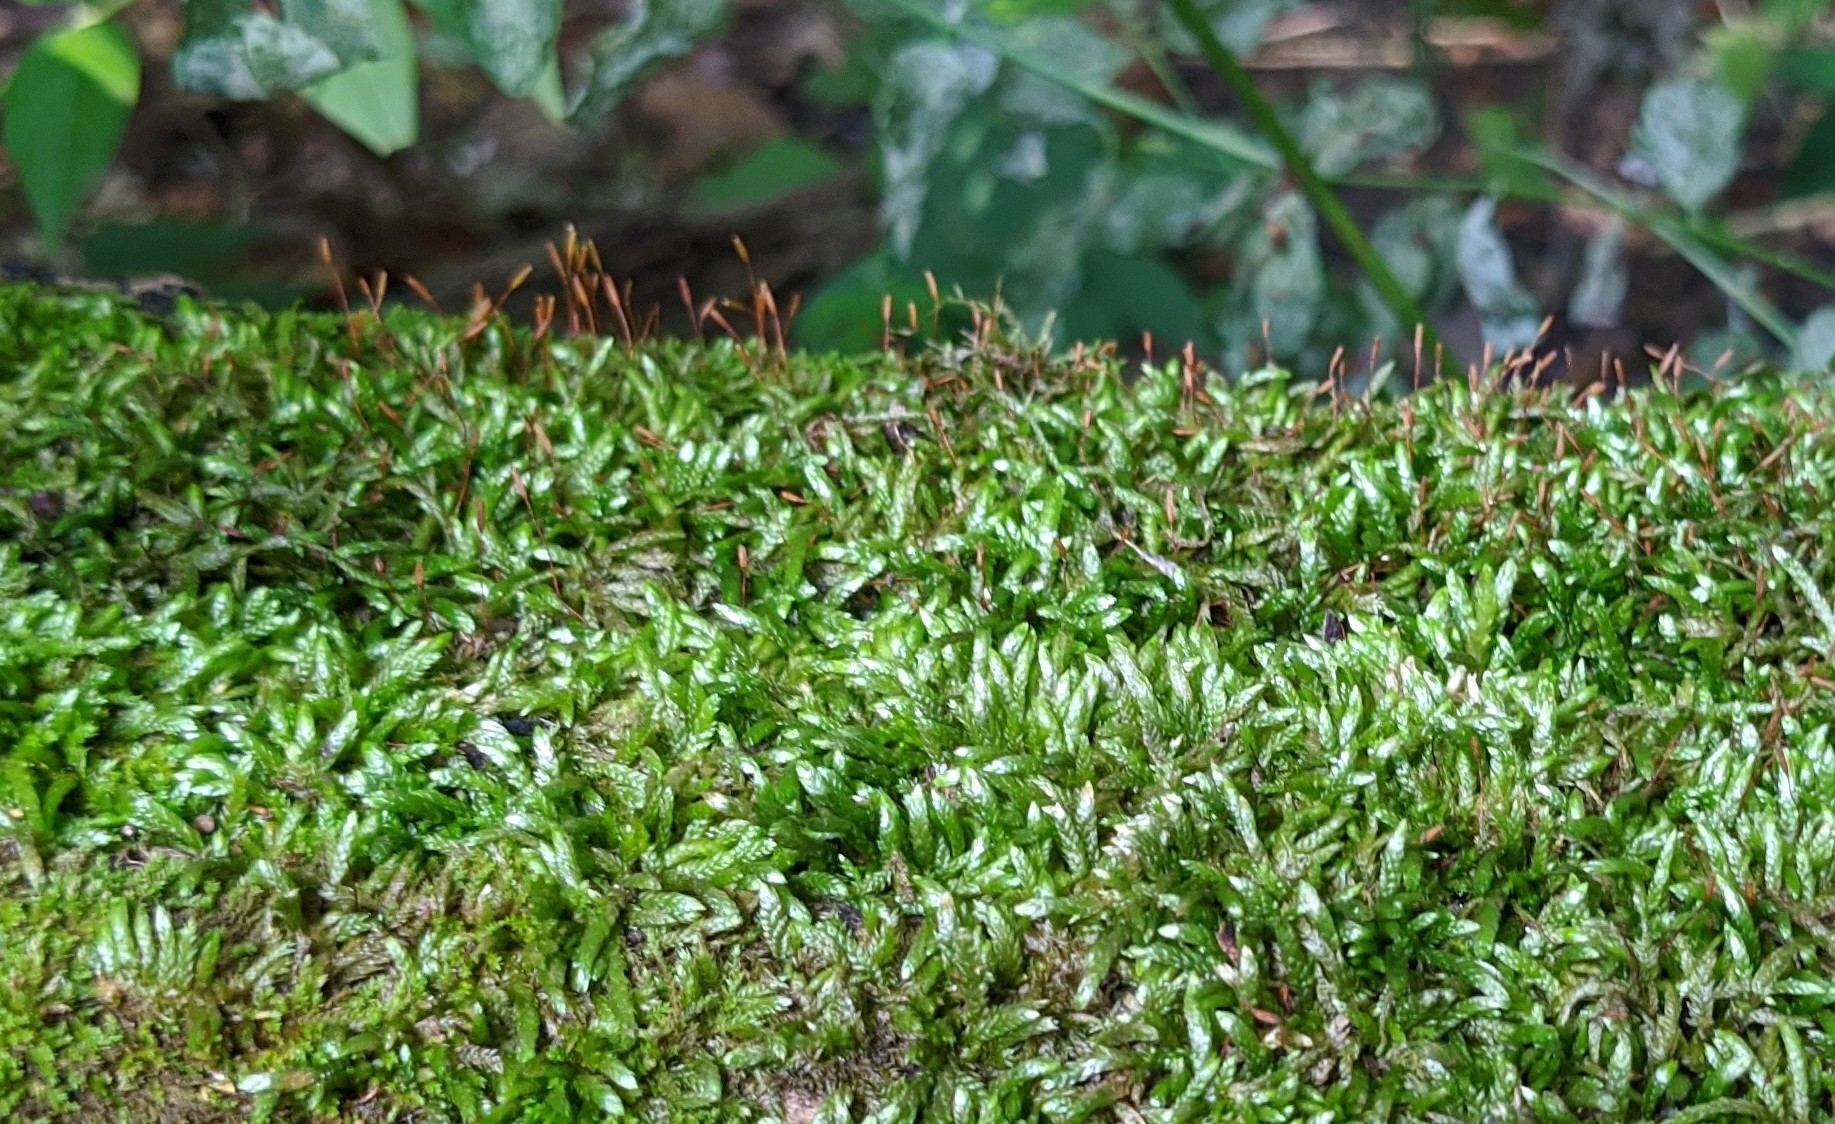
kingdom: Plantae
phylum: Bryophyta
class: Bryopsida
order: Hypnales
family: Entodontaceae
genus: Entodon
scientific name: Entodon seductrix
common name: Round-stemmed entodon moss
